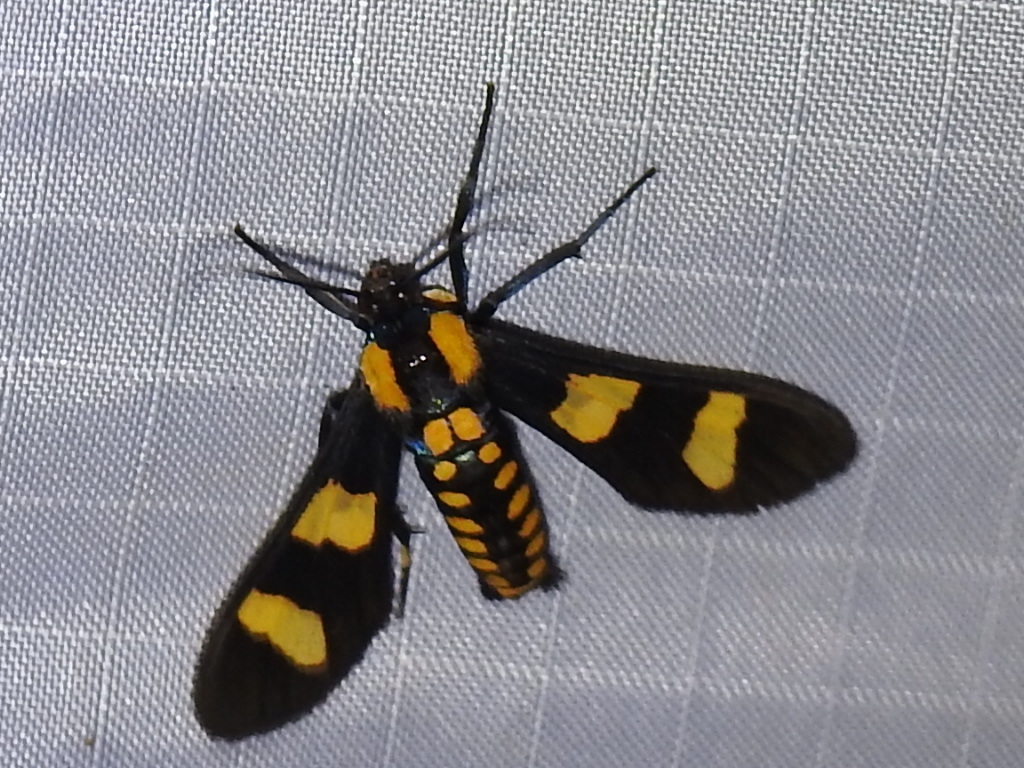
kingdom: Animalia
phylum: Arthropoda
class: Insecta
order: Lepidoptera
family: Erebidae
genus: Phoenicoprocta
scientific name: Phoenicoprocta hampsonii
